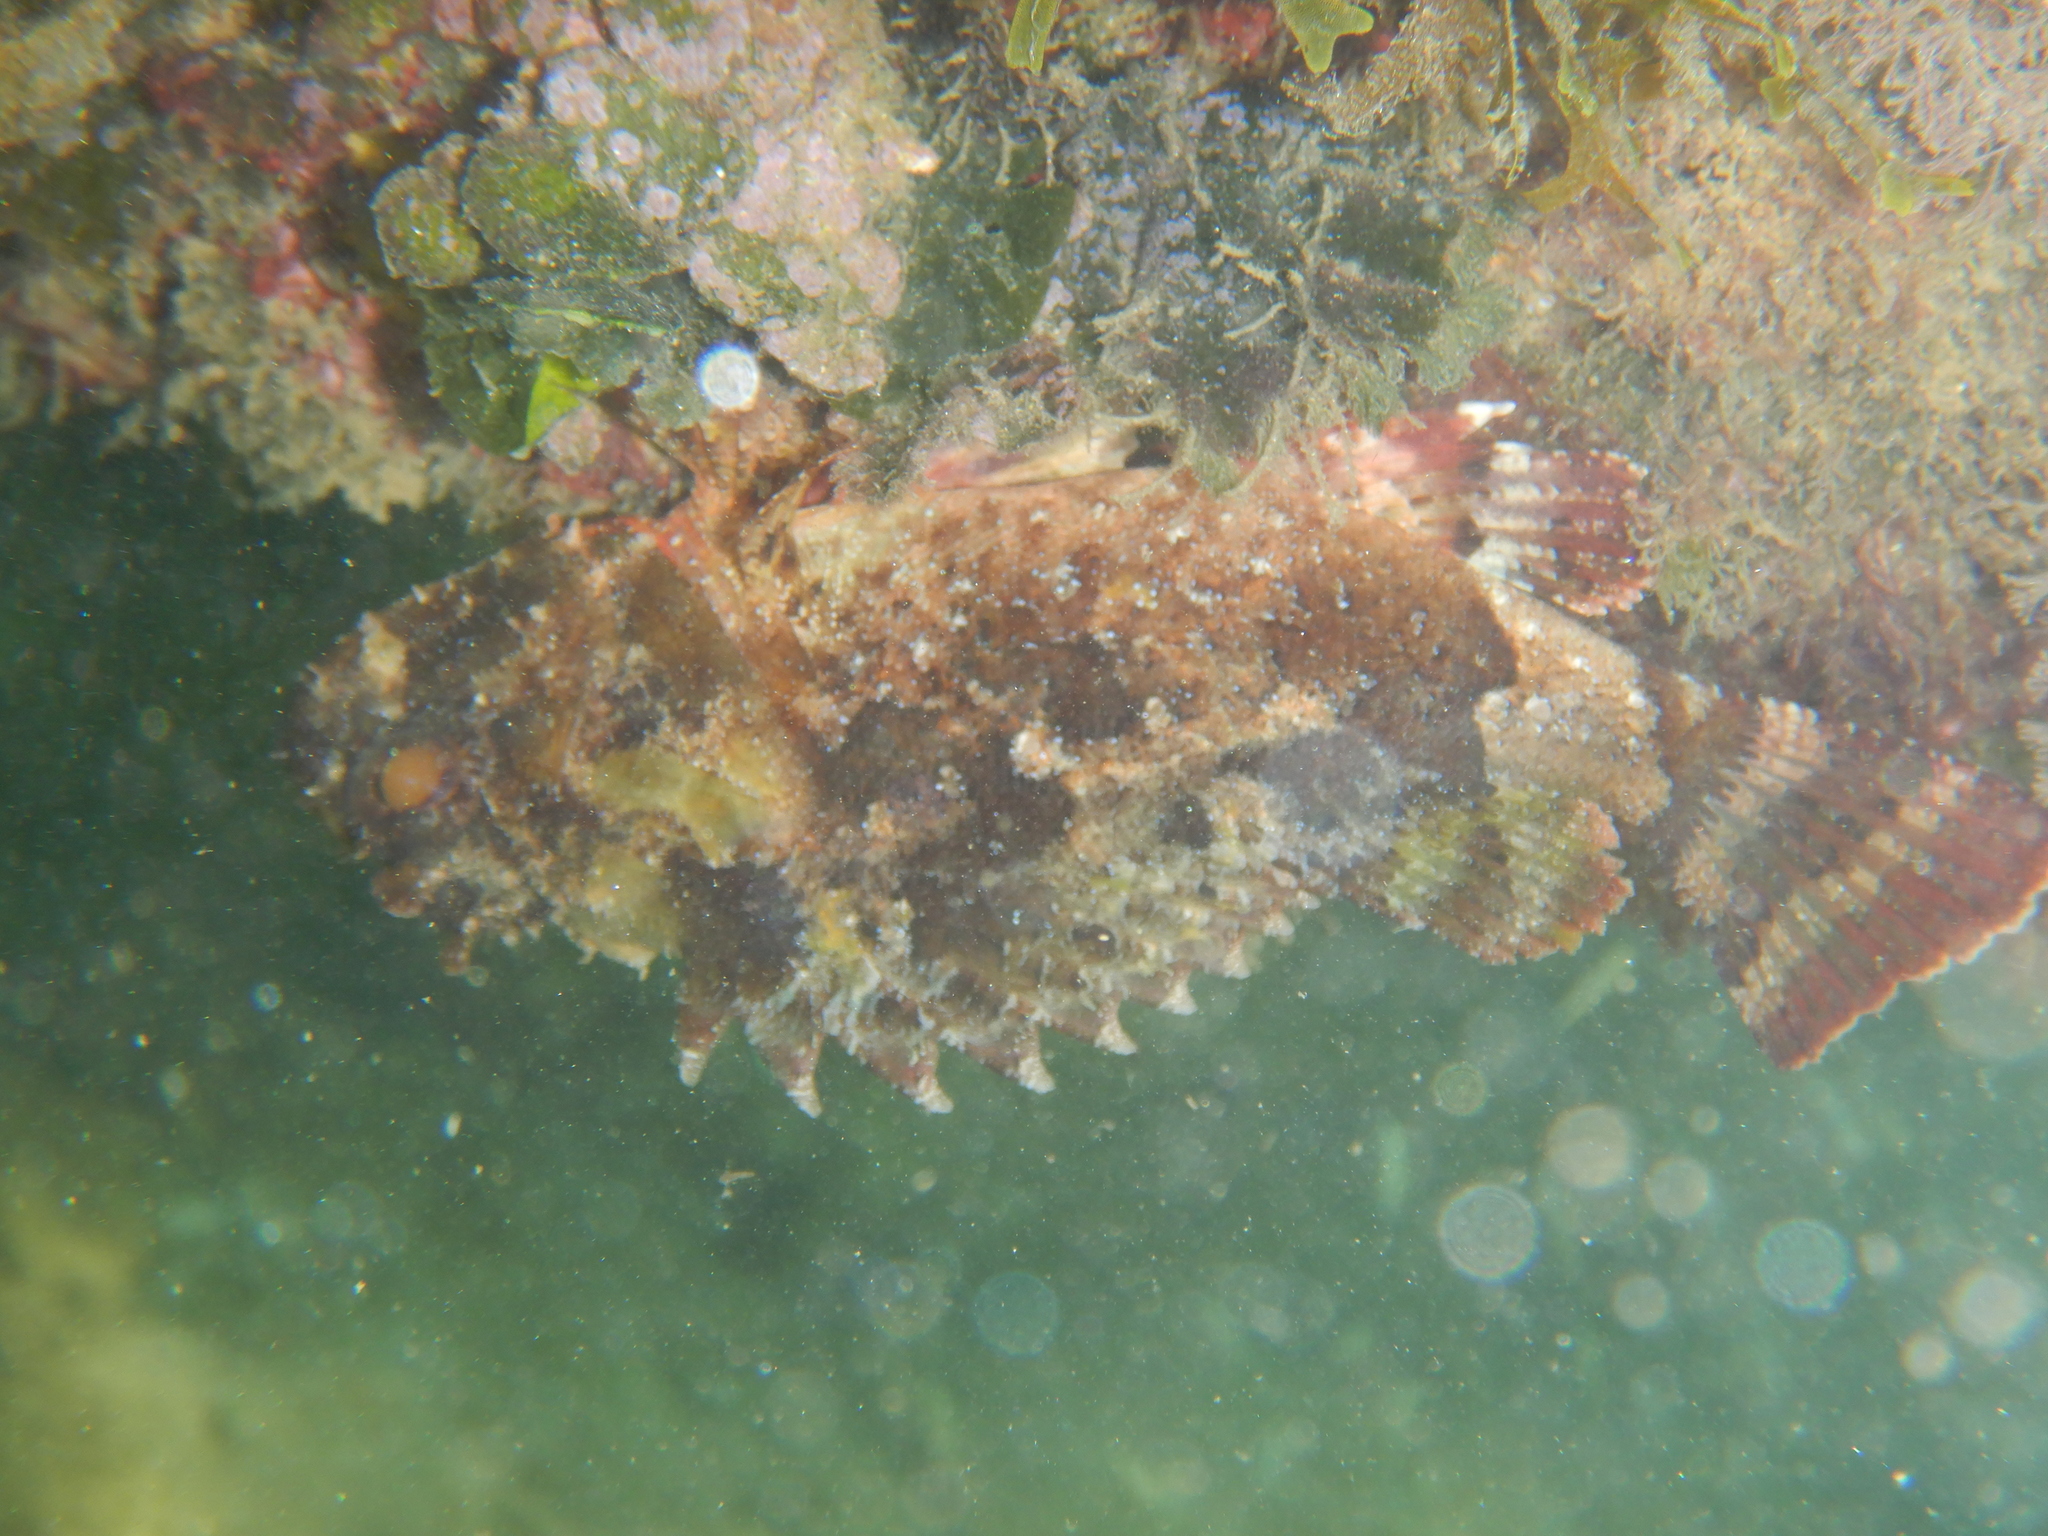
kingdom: Animalia
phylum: Chordata
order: Scorpaeniformes
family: Scorpaenidae
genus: Scorpaena
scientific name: Scorpaena porcus
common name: Black scorpionfish
